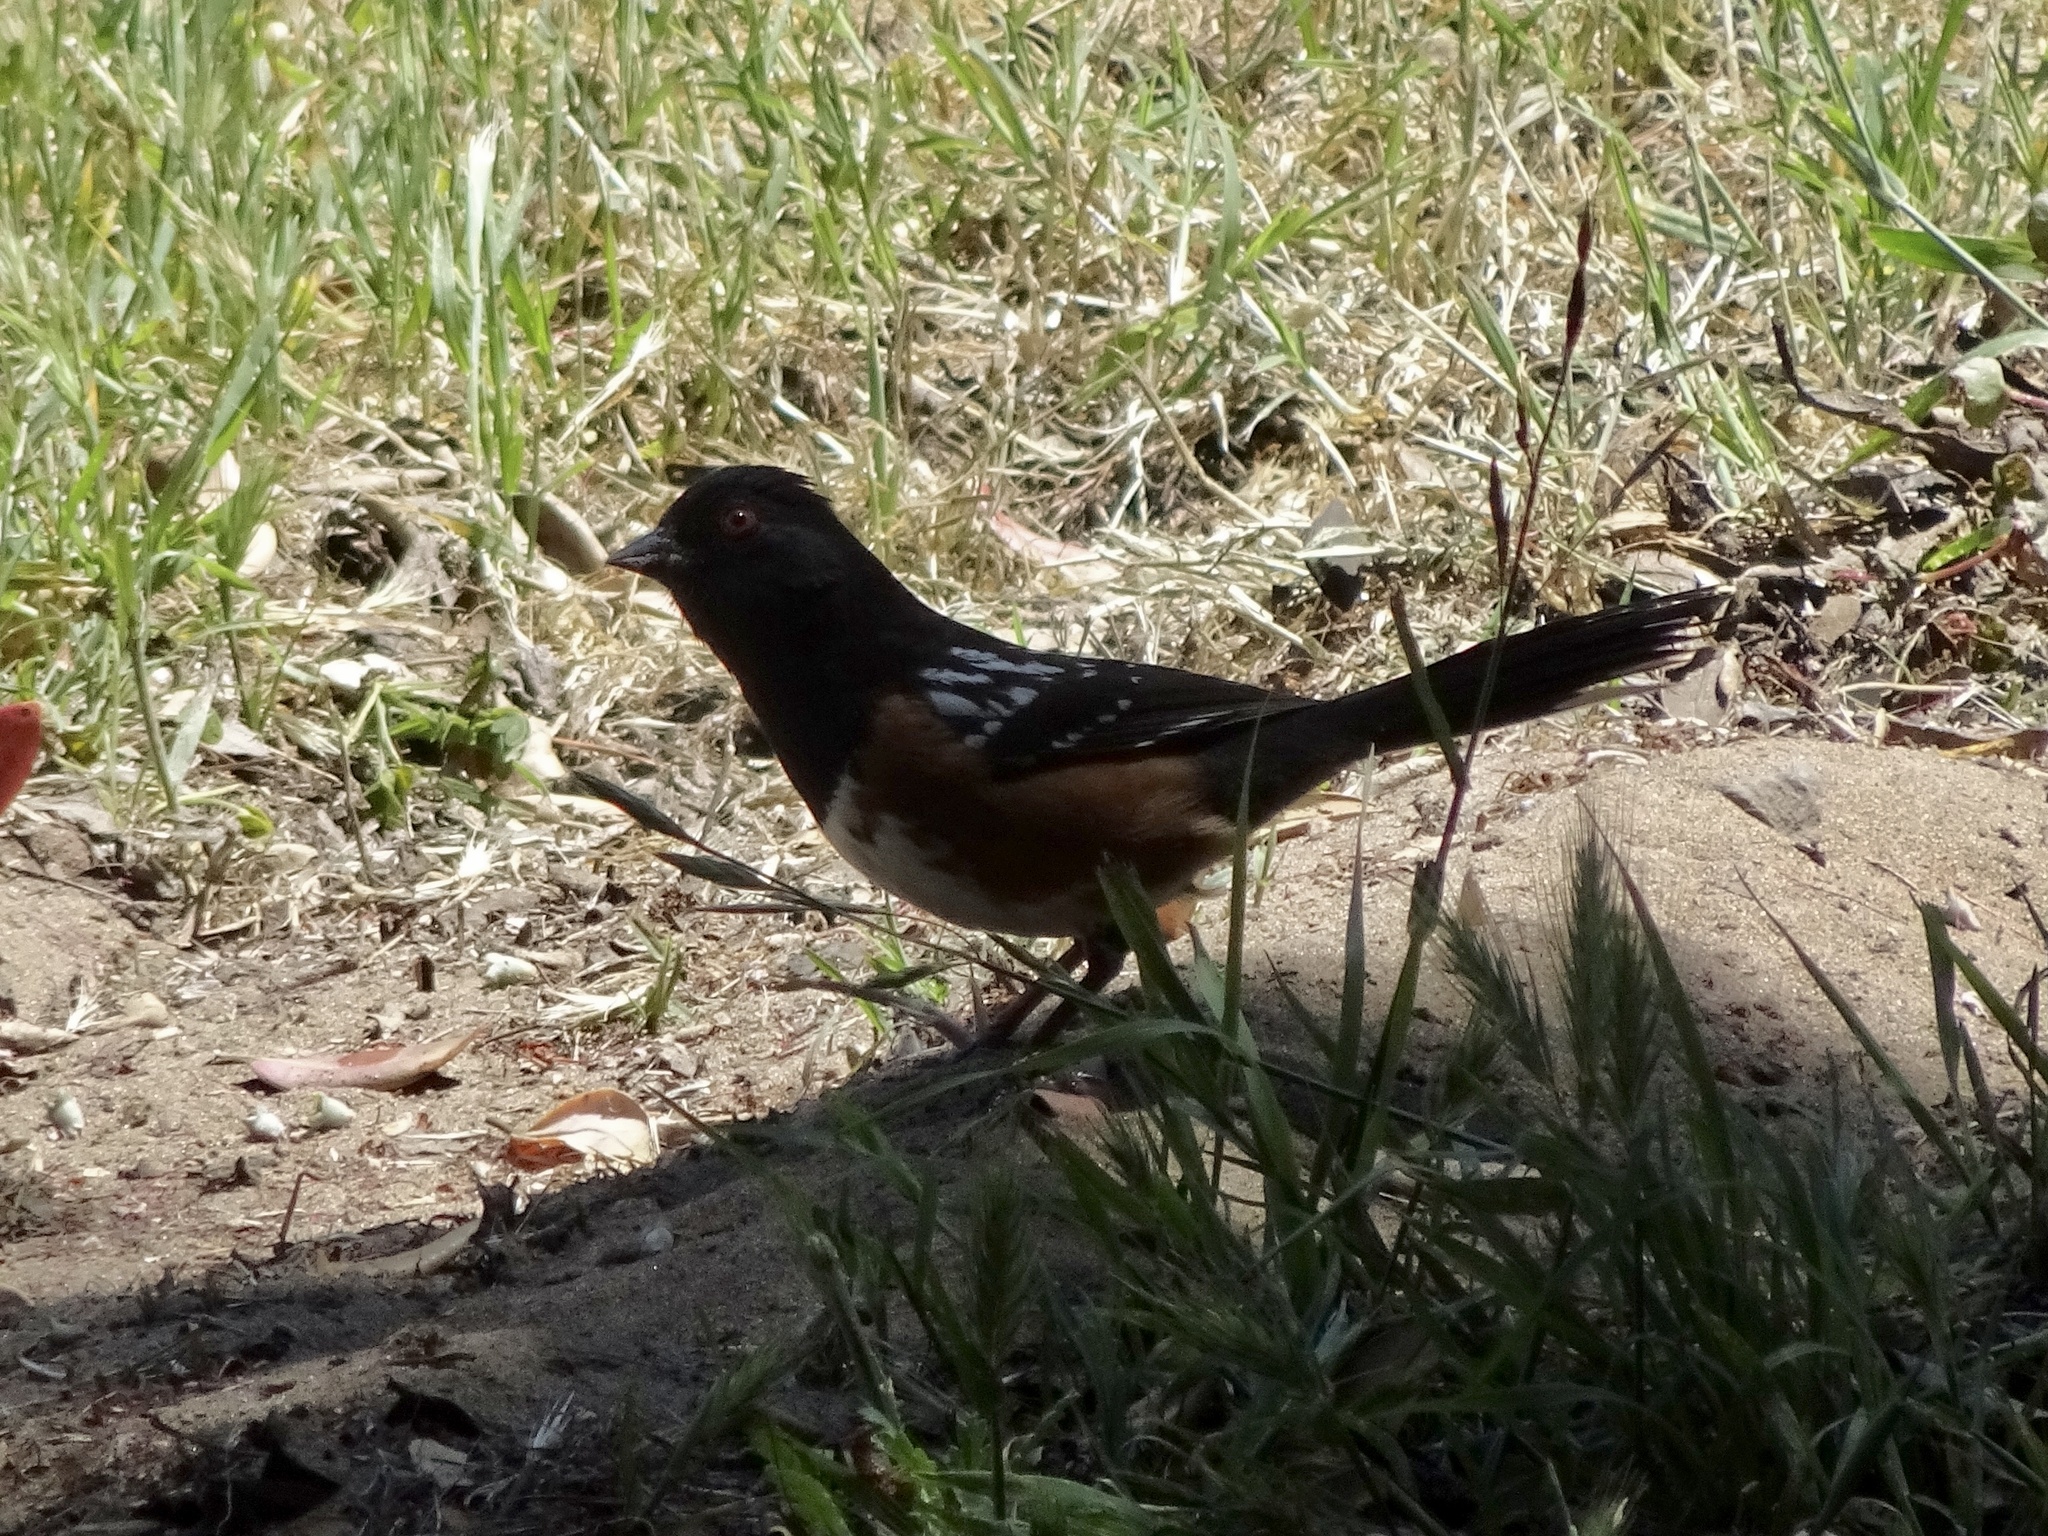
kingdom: Animalia
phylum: Chordata
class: Aves
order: Passeriformes
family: Passerellidae
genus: Pipilo
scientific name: Pipilo maculatus
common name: Spotted towhee
